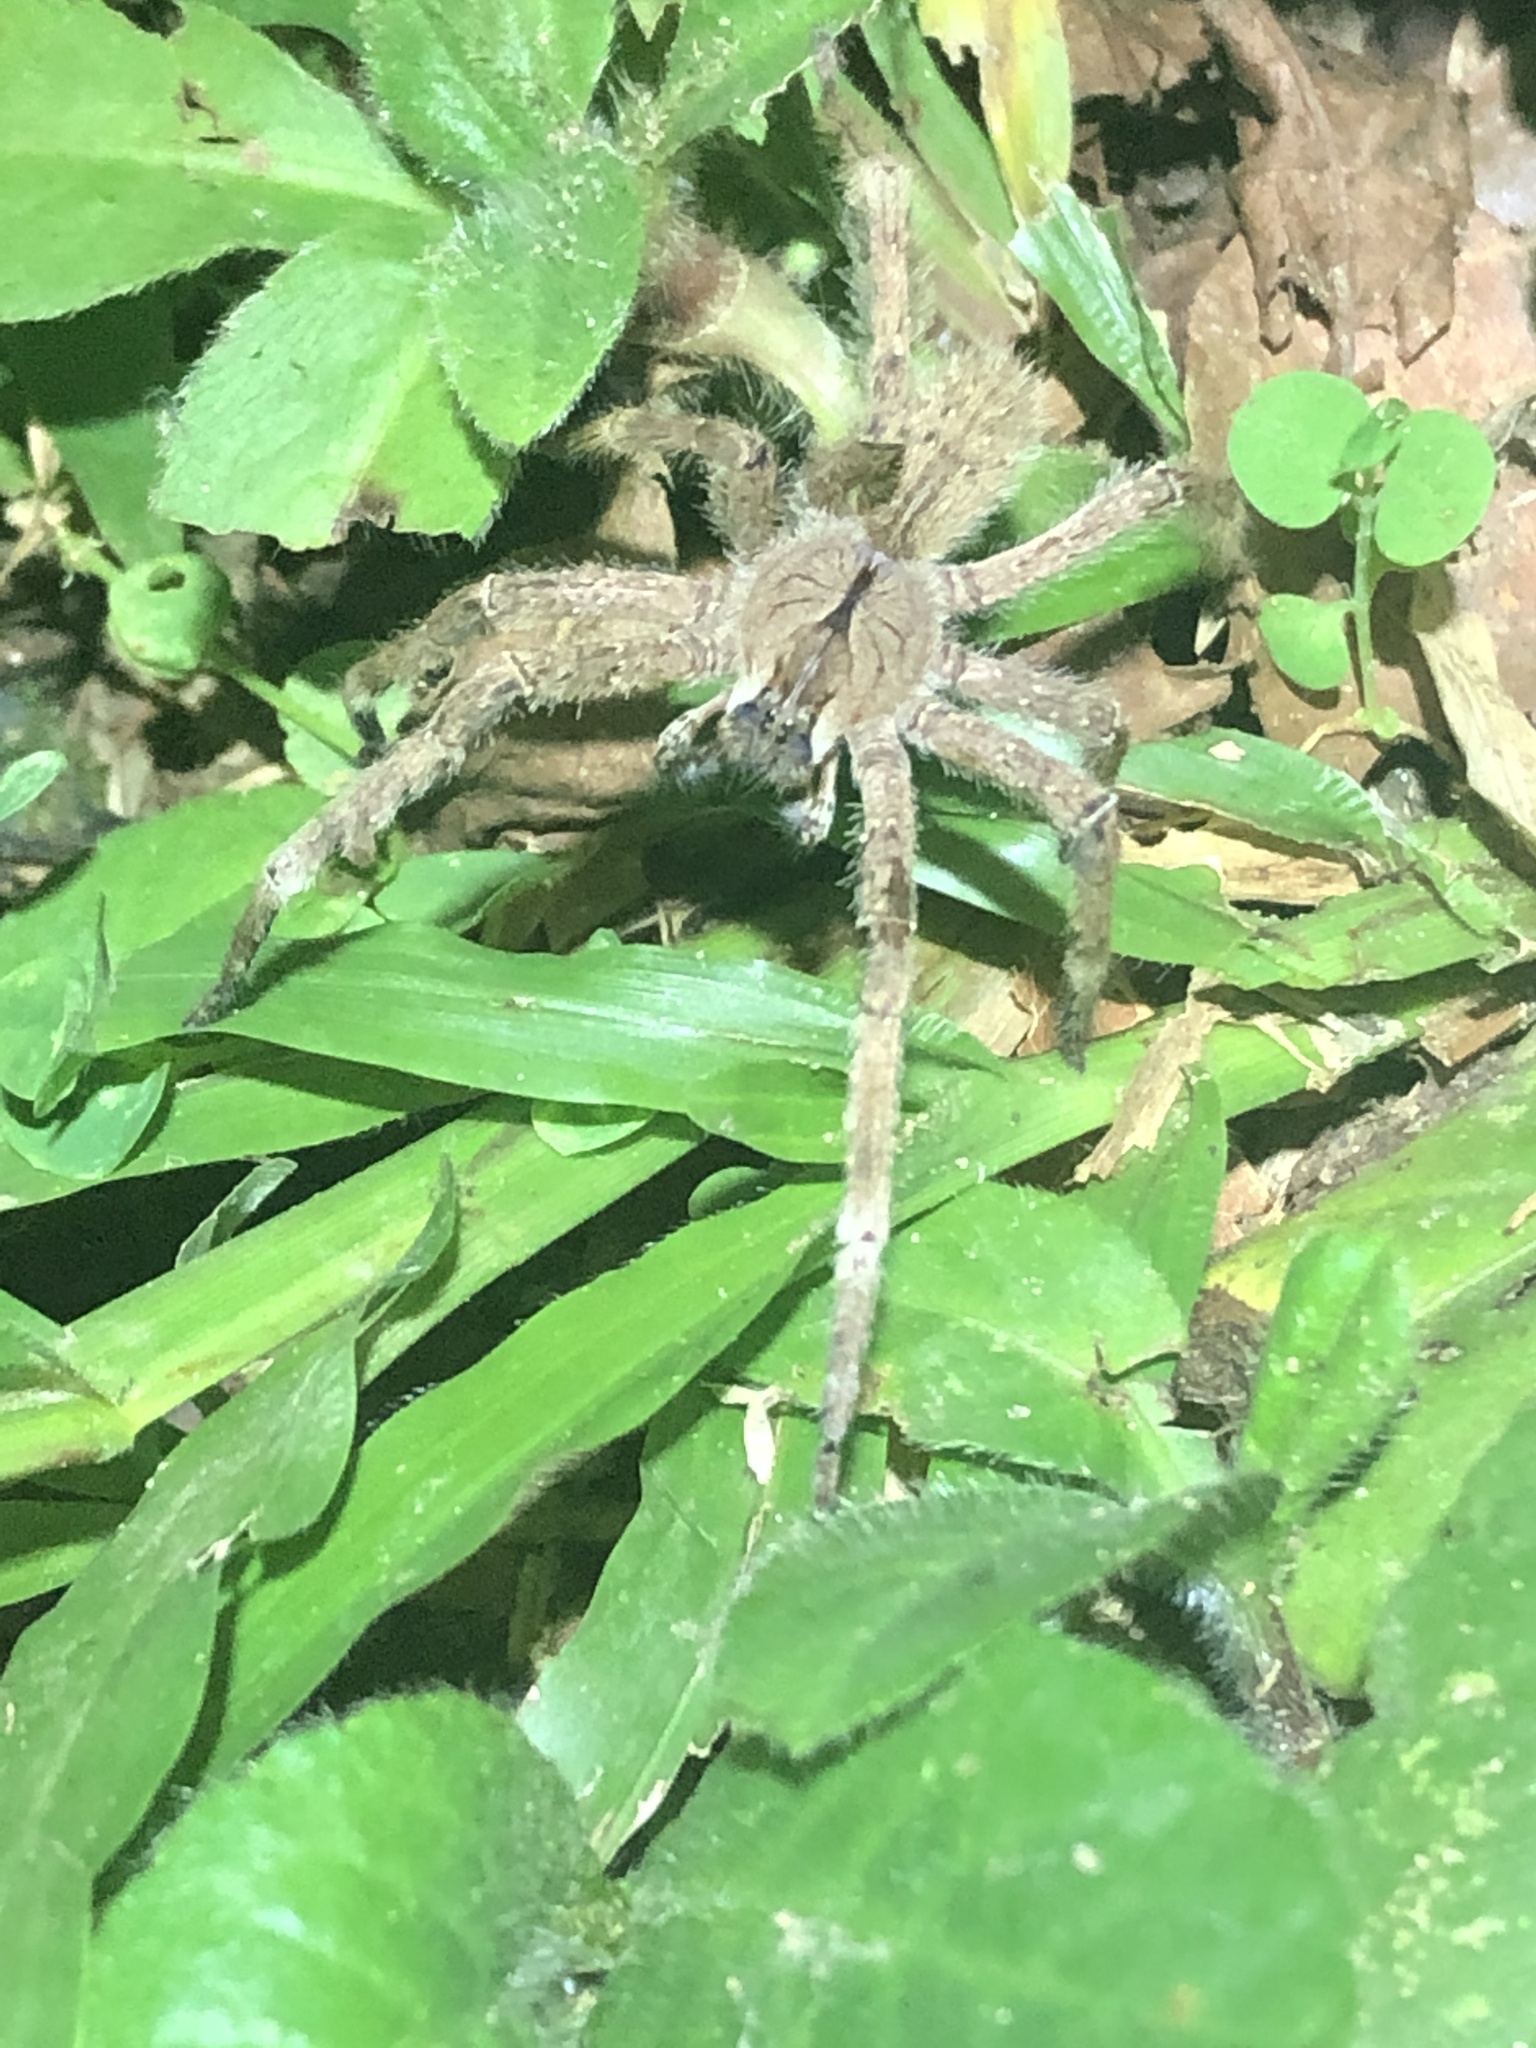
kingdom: Animalia
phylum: Arthropoda
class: Arachnida
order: Araneae
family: Ctenidae
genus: Phoneutria
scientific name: Phoneutria boliviensis
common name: Wandering spiders
